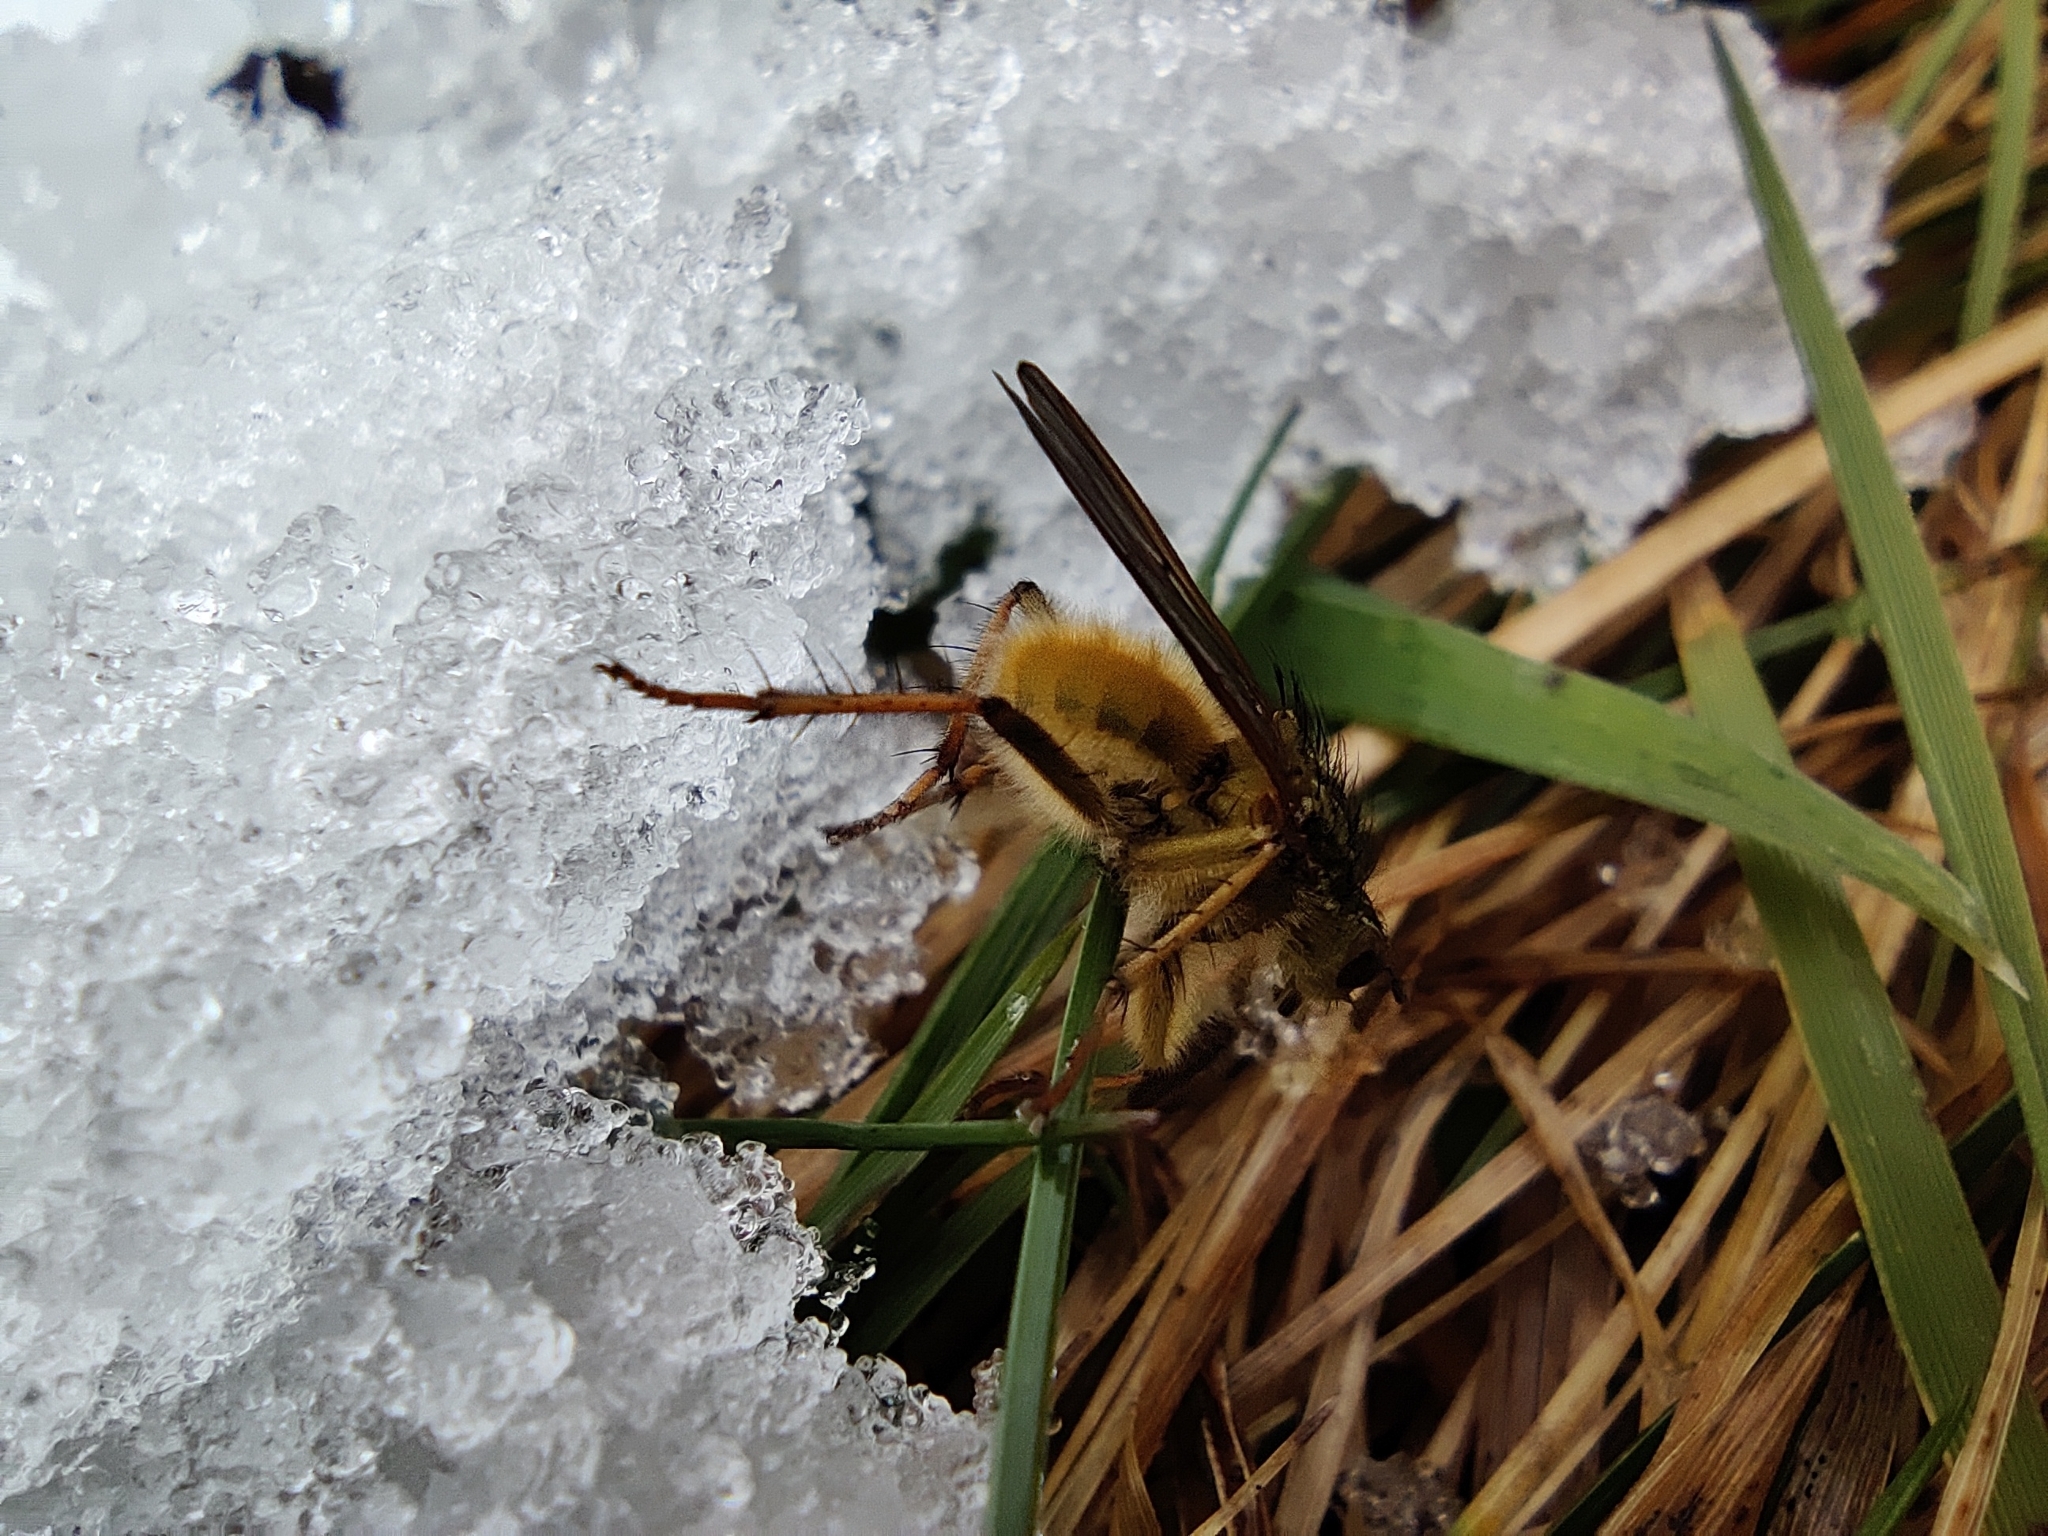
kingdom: Animalia
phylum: Arthropoda
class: Insecta
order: Diptera
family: Scathophagidae
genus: Scathophaga
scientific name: Scathophaga stercoraria
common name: Yellow dung fly
